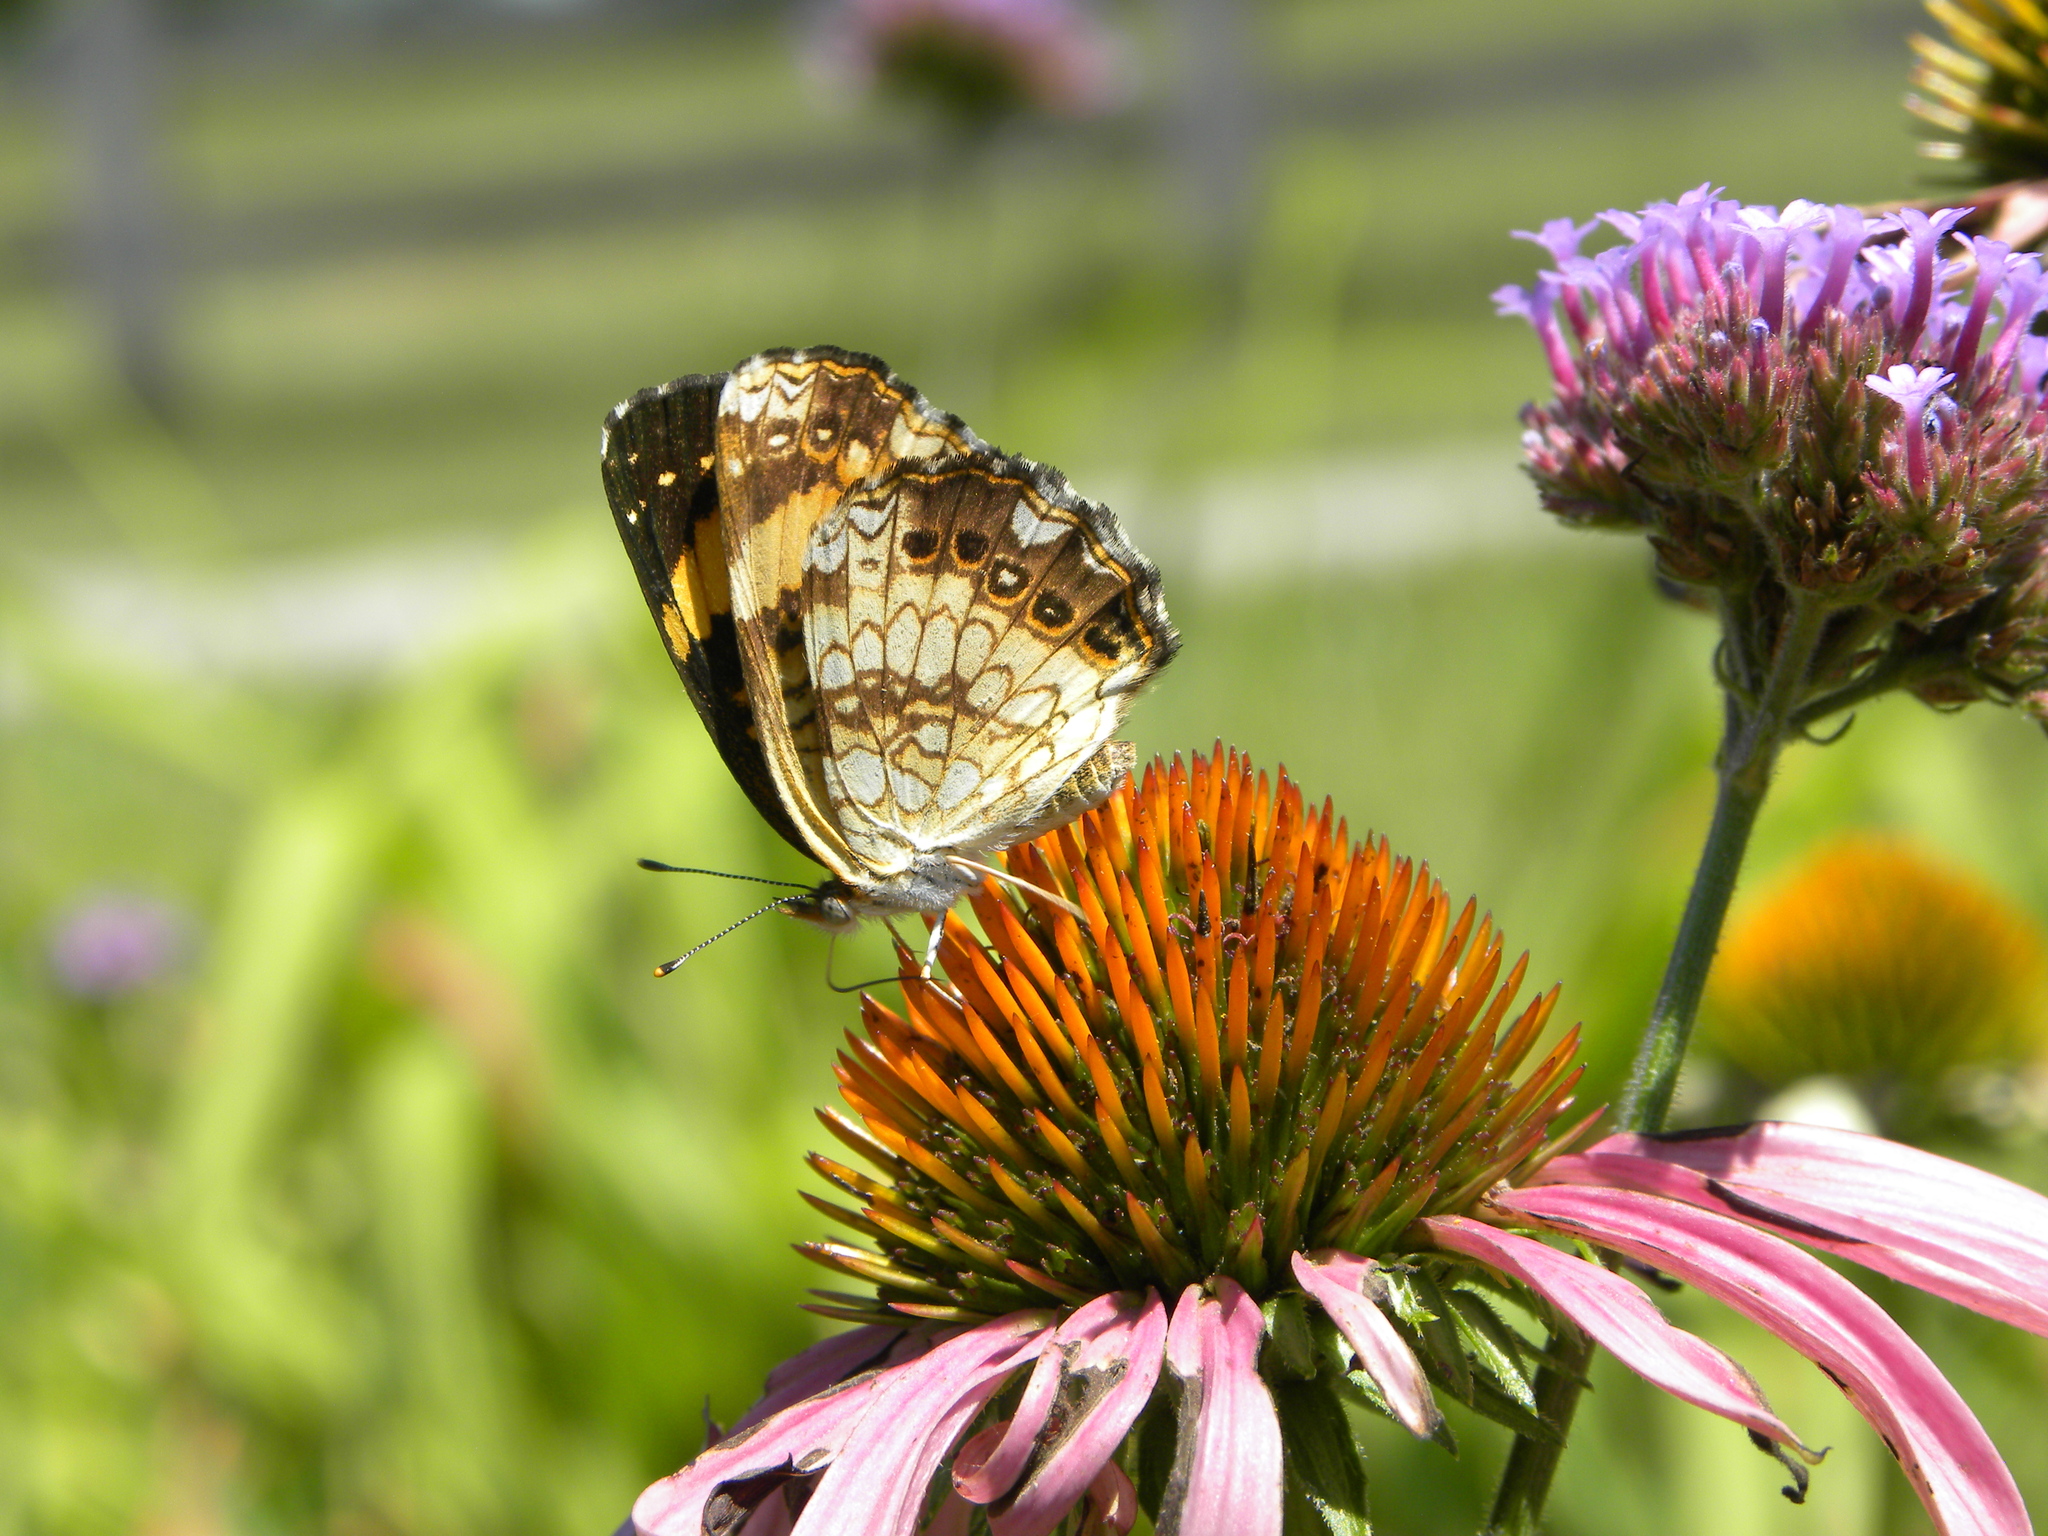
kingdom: Animalia
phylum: Arthropoda
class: Insecta
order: Lepidoptera
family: Nymphalidae
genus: Chlosyne
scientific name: Chlosyne nycteis
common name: Silvery checkerspot
